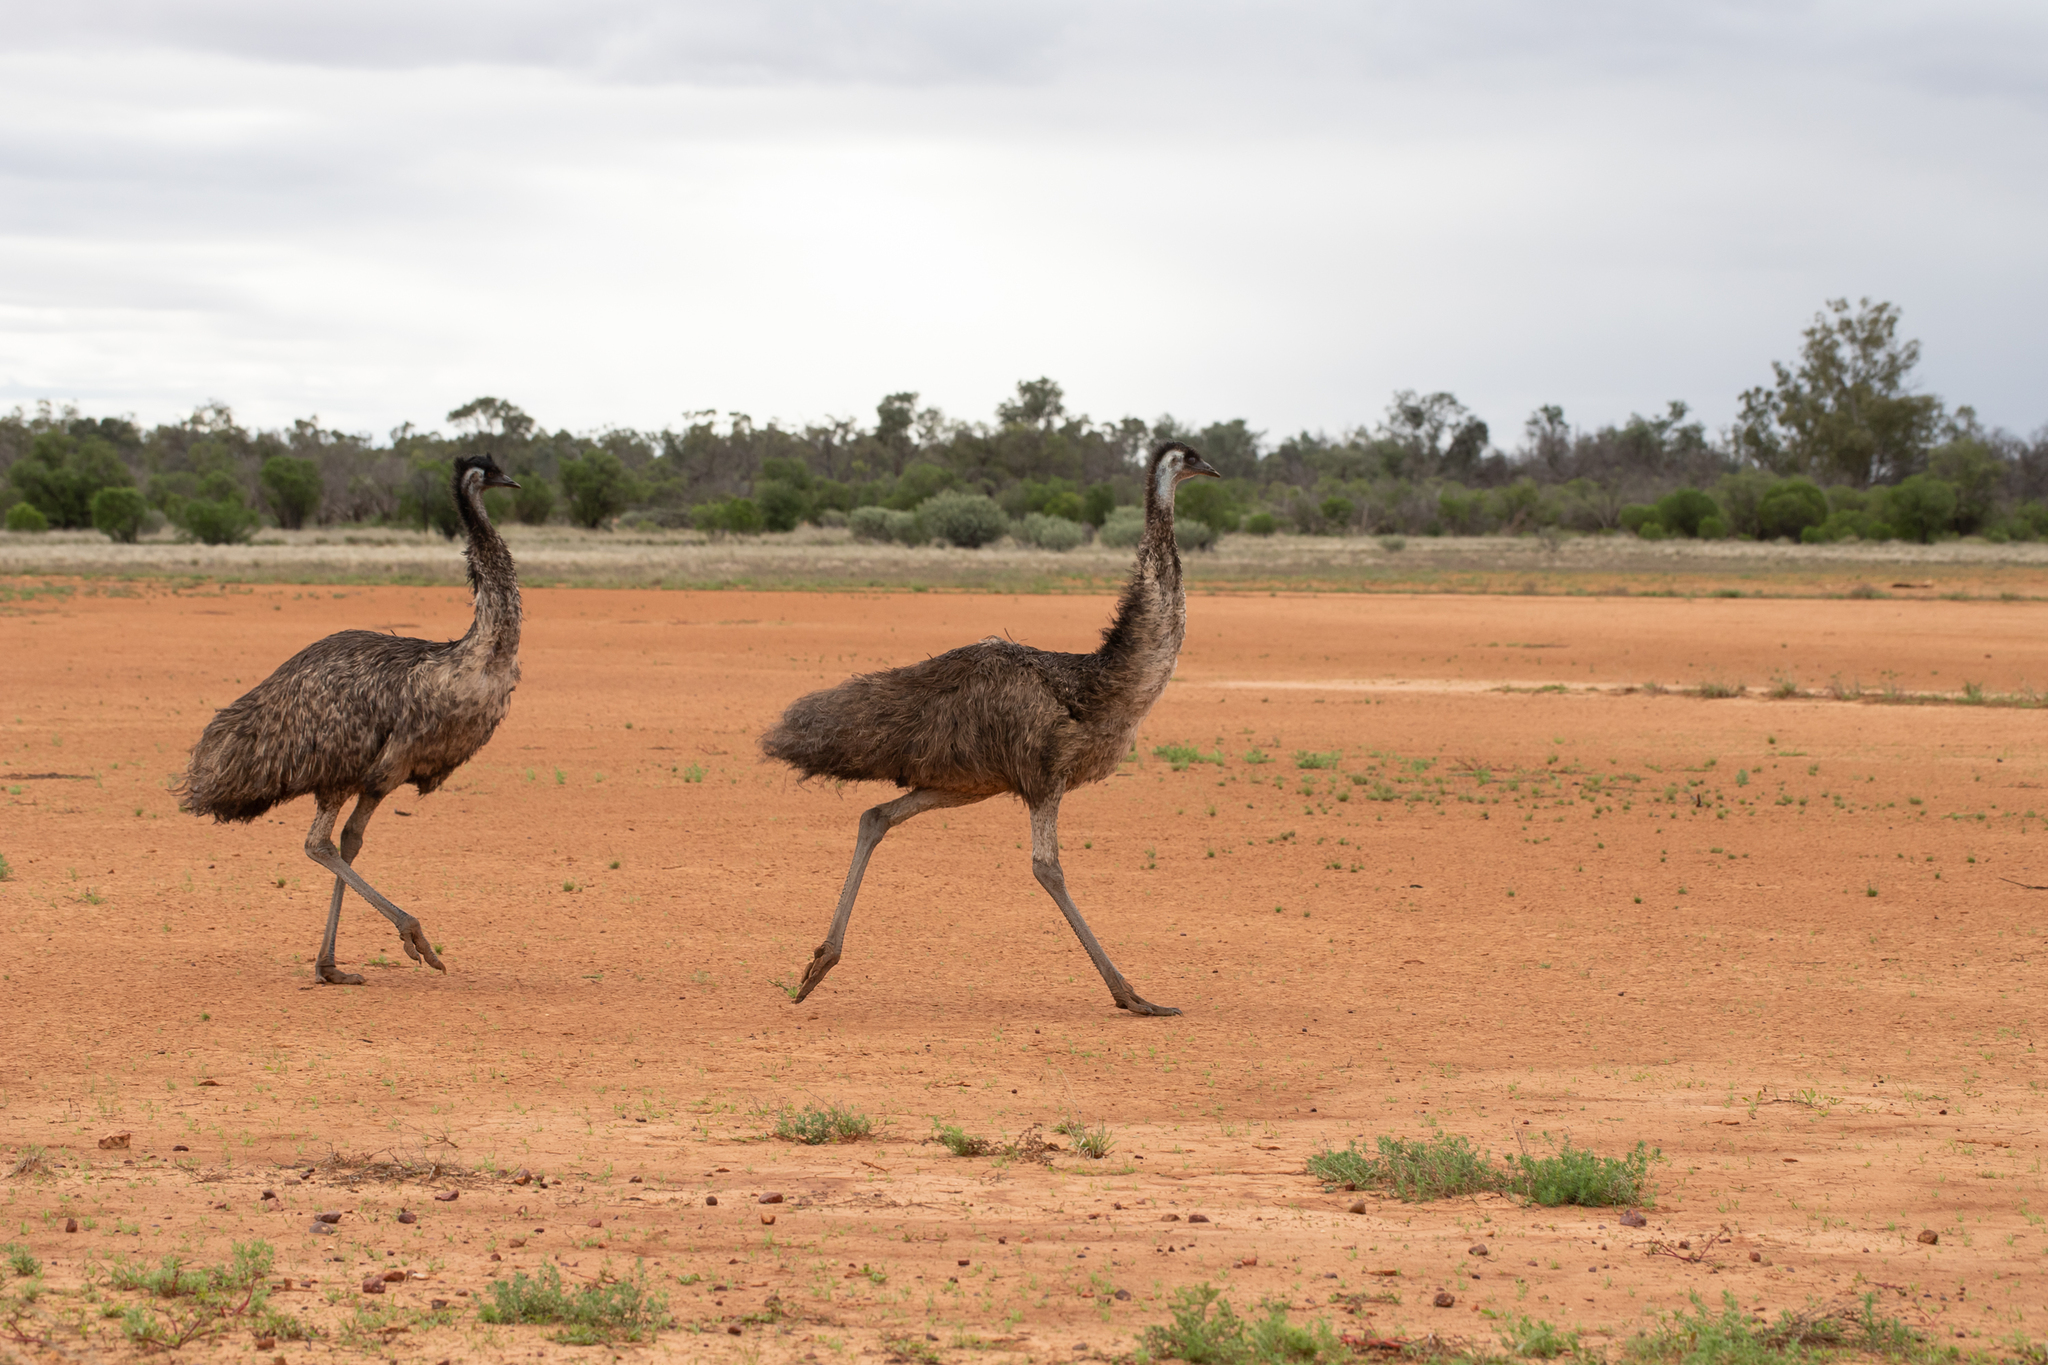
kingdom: Animalia
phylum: Chordata
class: Aves
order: Casuariiformes
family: Dromaiidae
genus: Dromaius
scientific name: Dromaius novaehollandiae
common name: Emu
